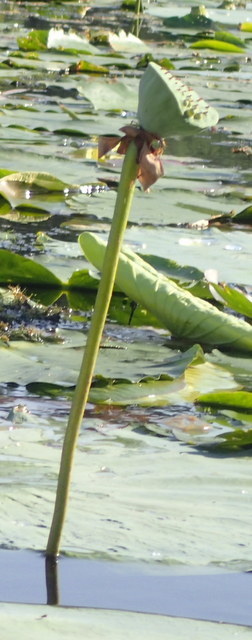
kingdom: Plantae
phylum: Tracheophyta
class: Magnoliopsida
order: Proteales
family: Nelumbonaceae
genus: Nelumbo
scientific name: Nelumbo lutea
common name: American lotus
